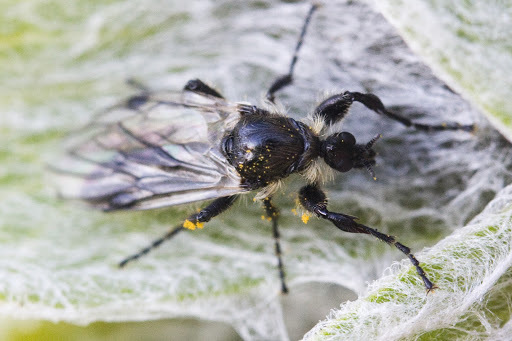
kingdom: Animalia
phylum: Arthropoda
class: Insecta
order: Diptera
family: Bibionidae
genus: Bibio
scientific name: Bibio albipennis
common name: White-winged march fly
